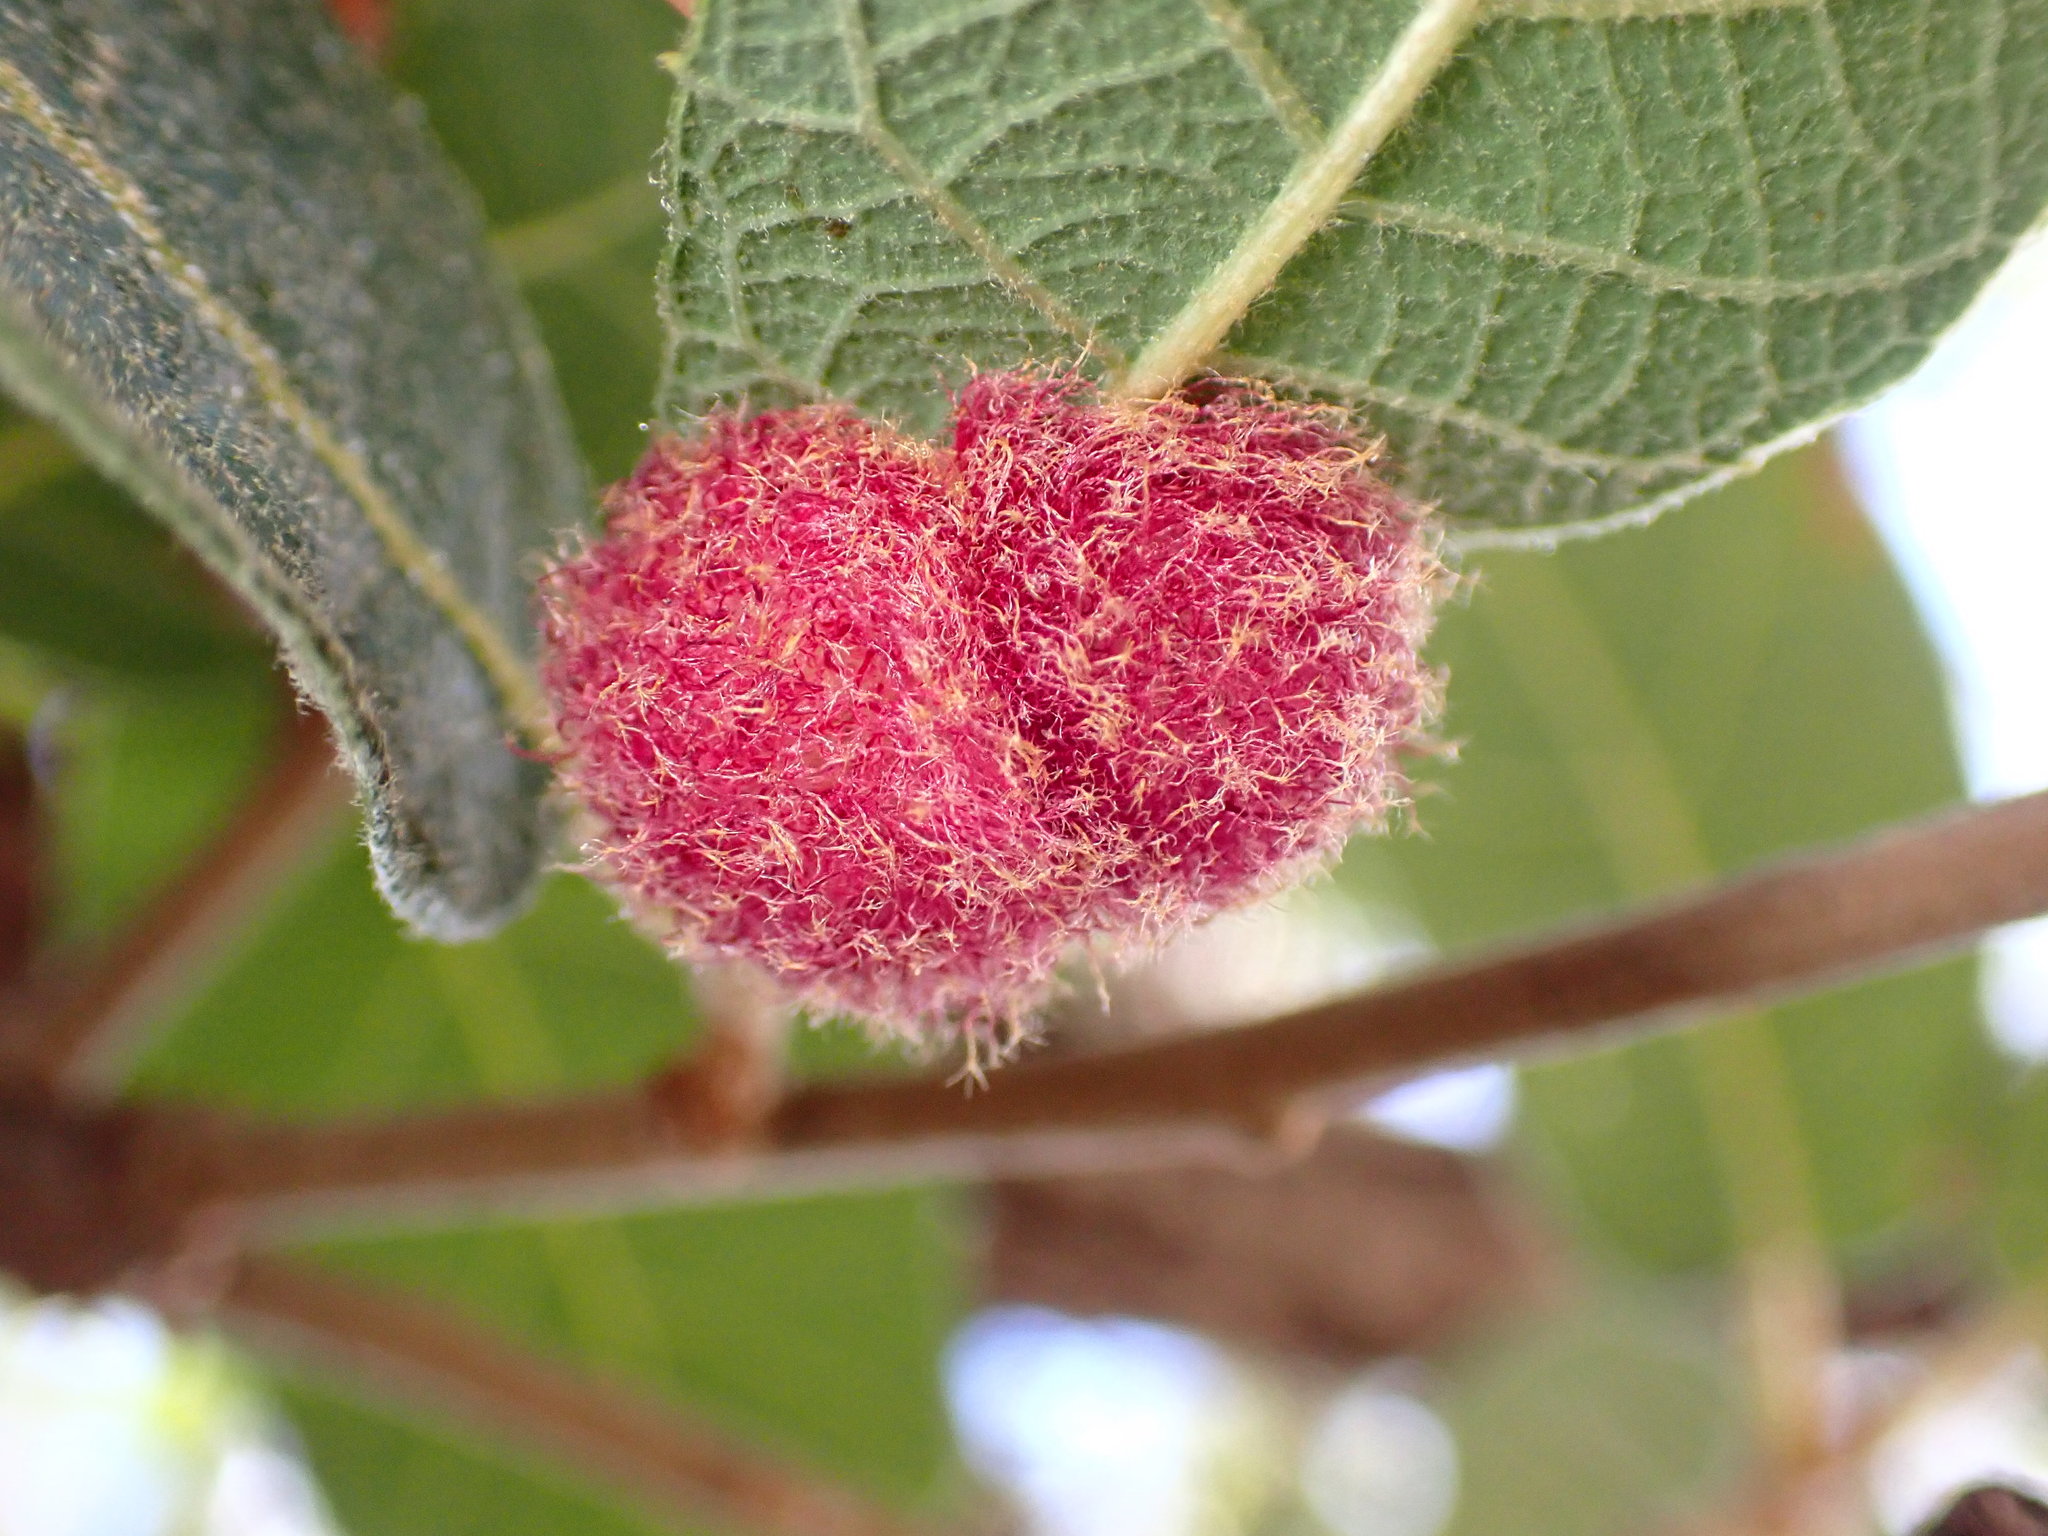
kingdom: Animalia
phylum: Arthropoda
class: Insecta
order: Hymenoptera
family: Cynipidae
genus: Cynips
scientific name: Cynips
